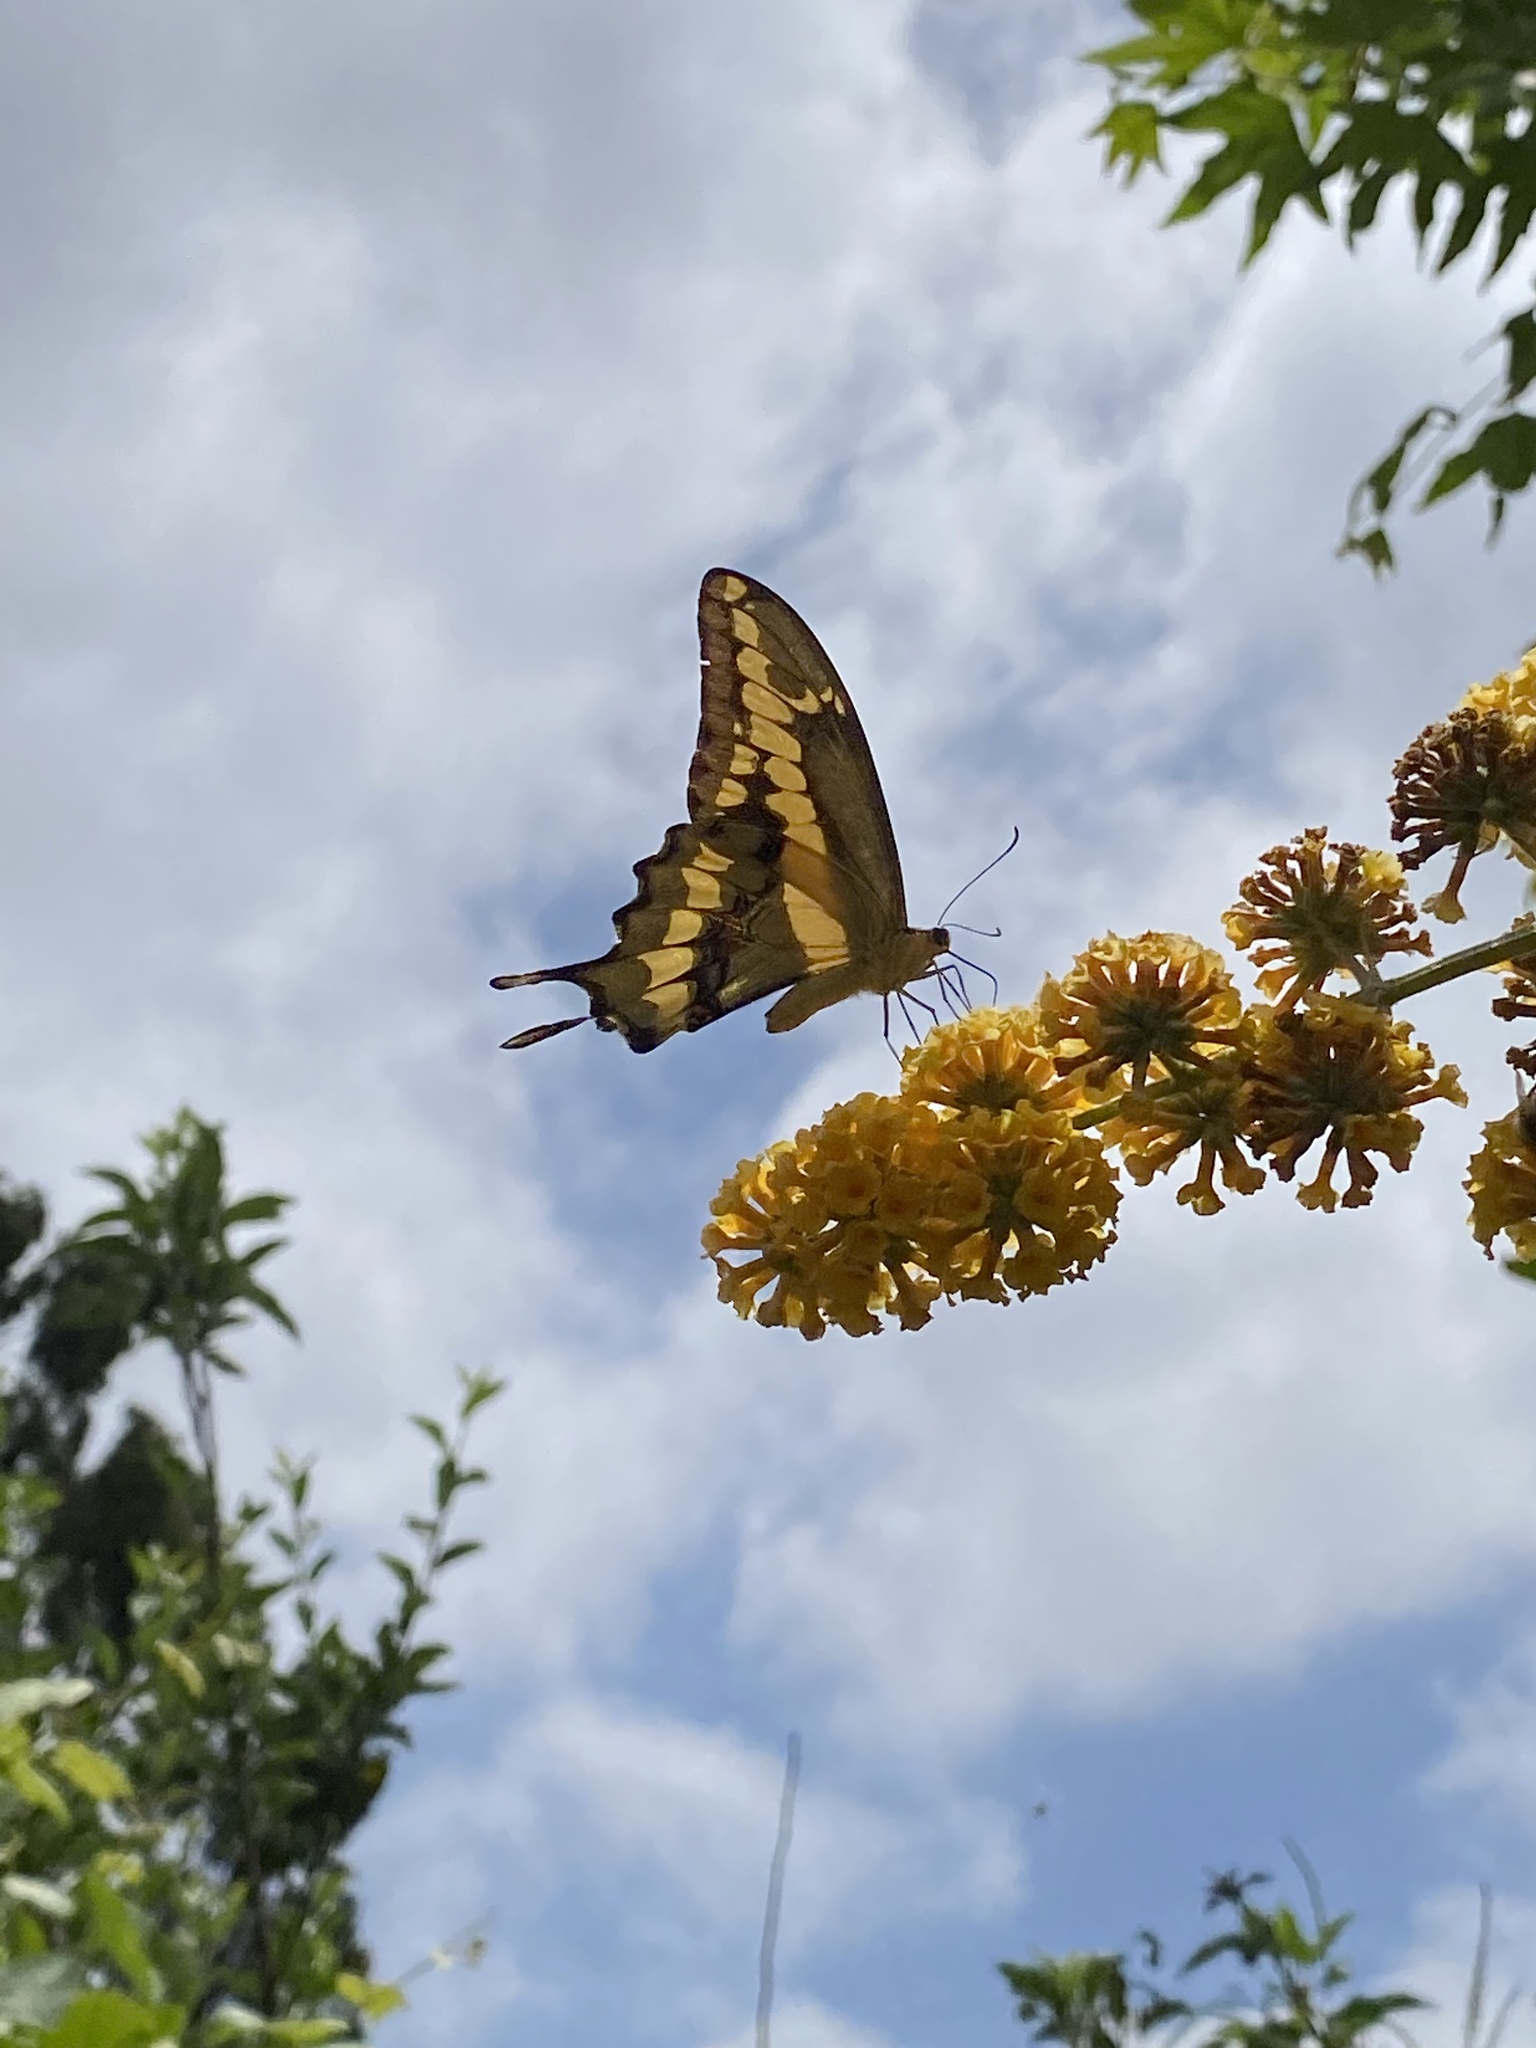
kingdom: Animalia
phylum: Arthropoda
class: Insecta
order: Lepidoptera
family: Papilionidae
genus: Papilio
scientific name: Papilio rumiko
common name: Western giant swallowtail
